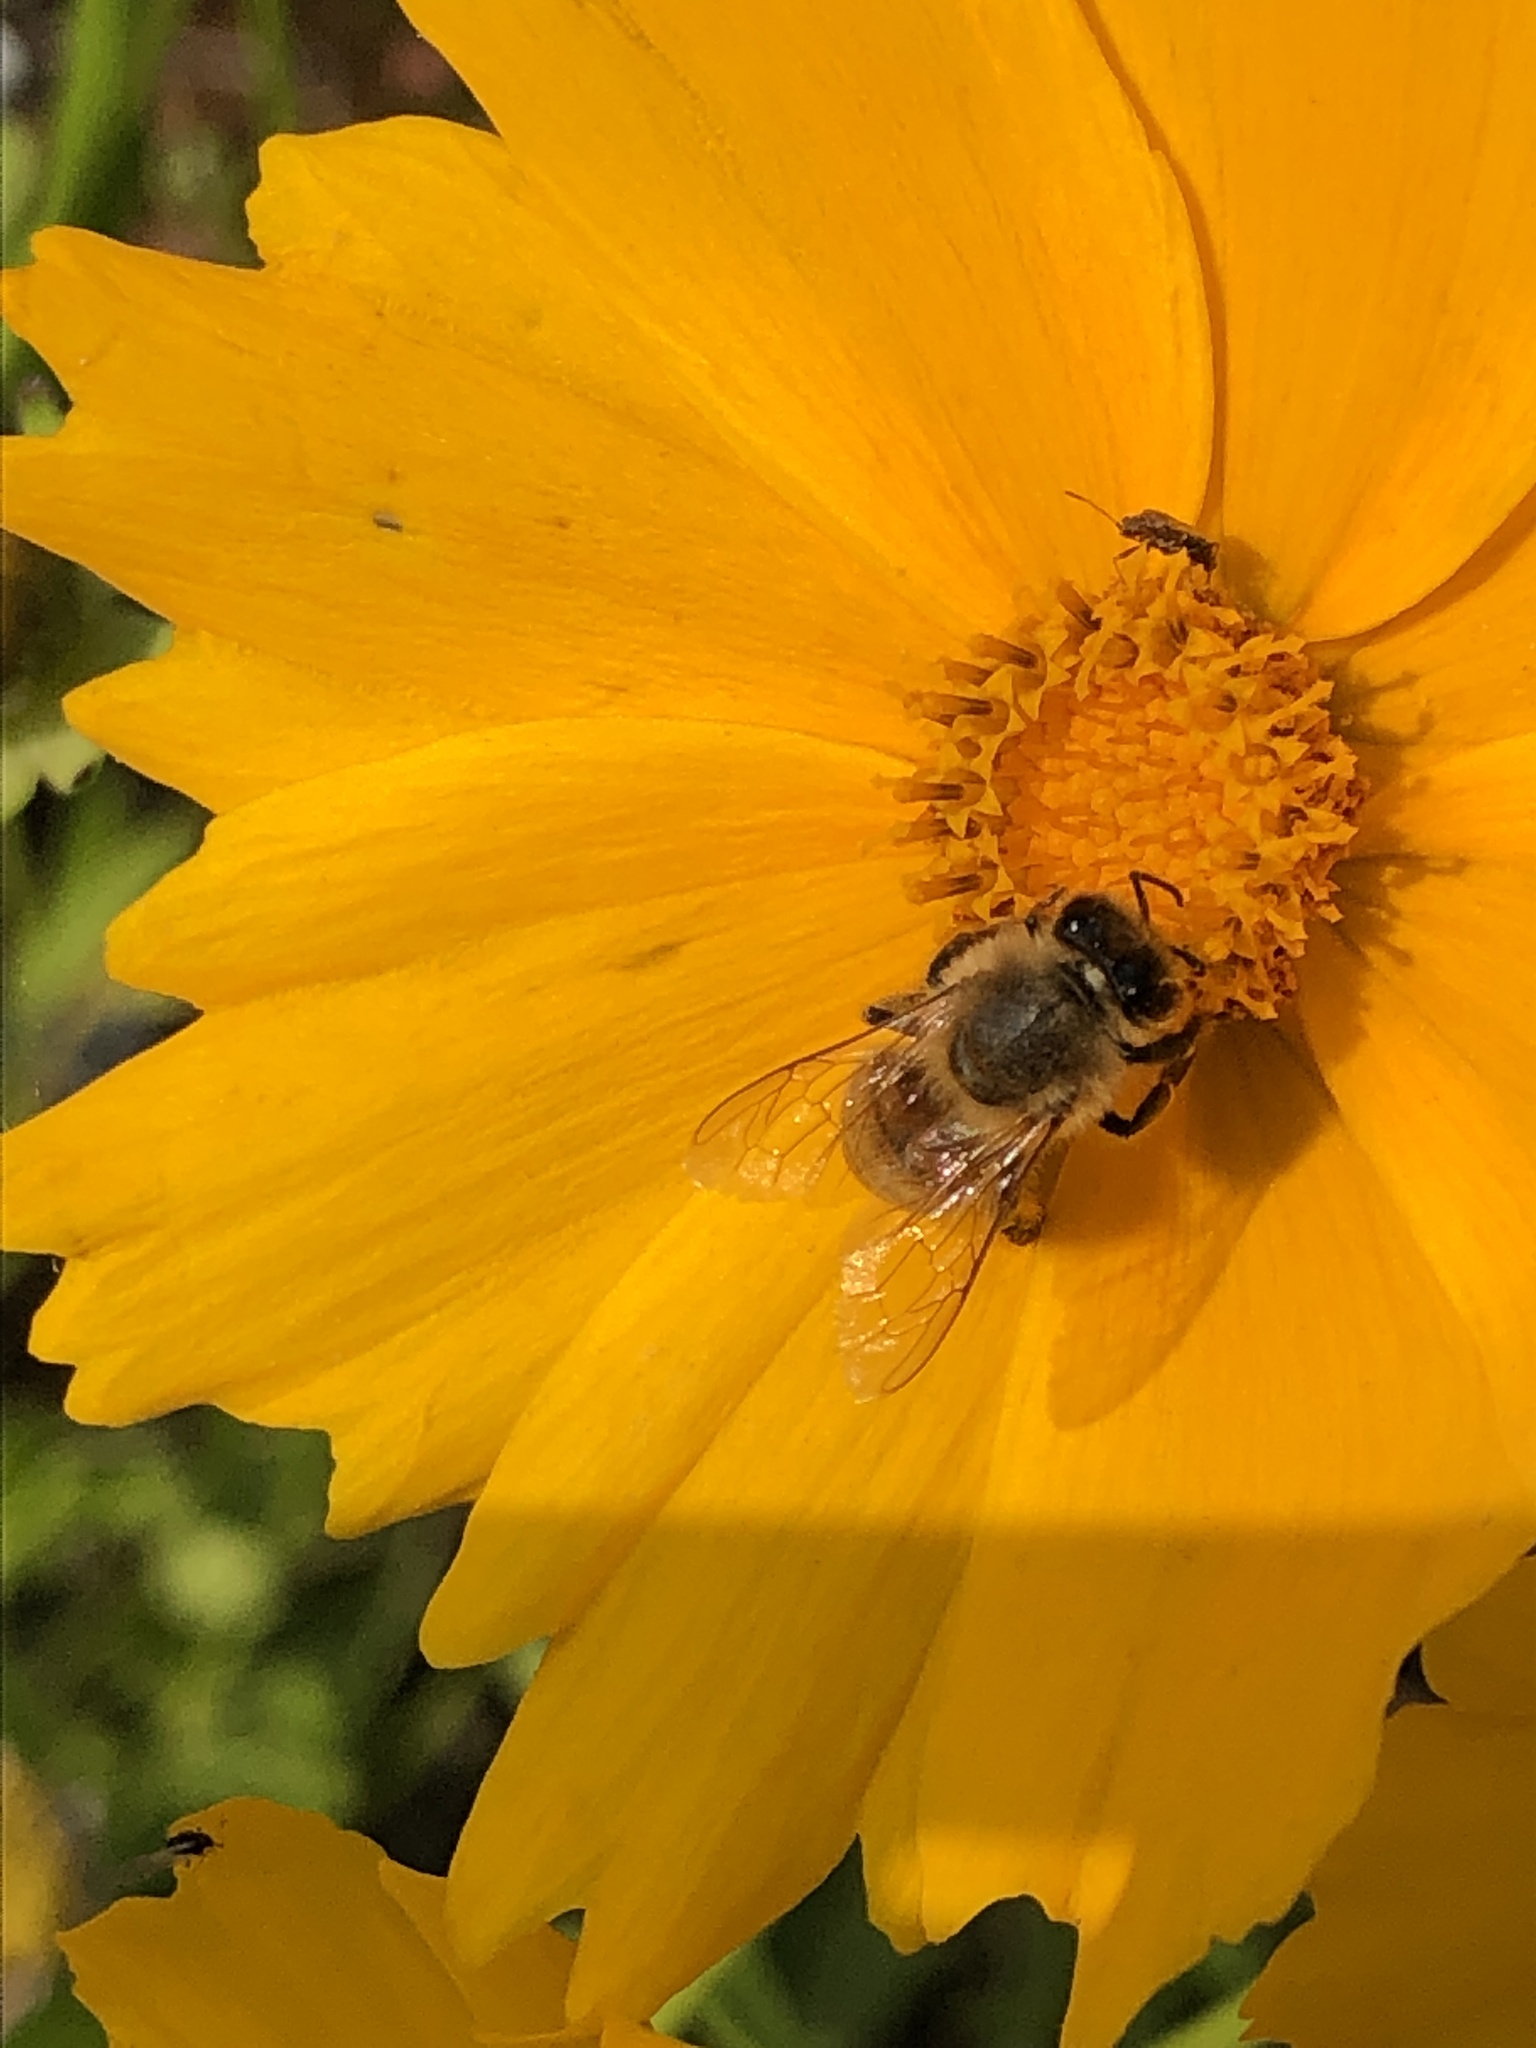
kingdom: Animalia
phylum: Arthropoda
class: Insecta
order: Hymenoptera
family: Apidae
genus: Apis
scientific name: Apis mellifera
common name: Honey bee
